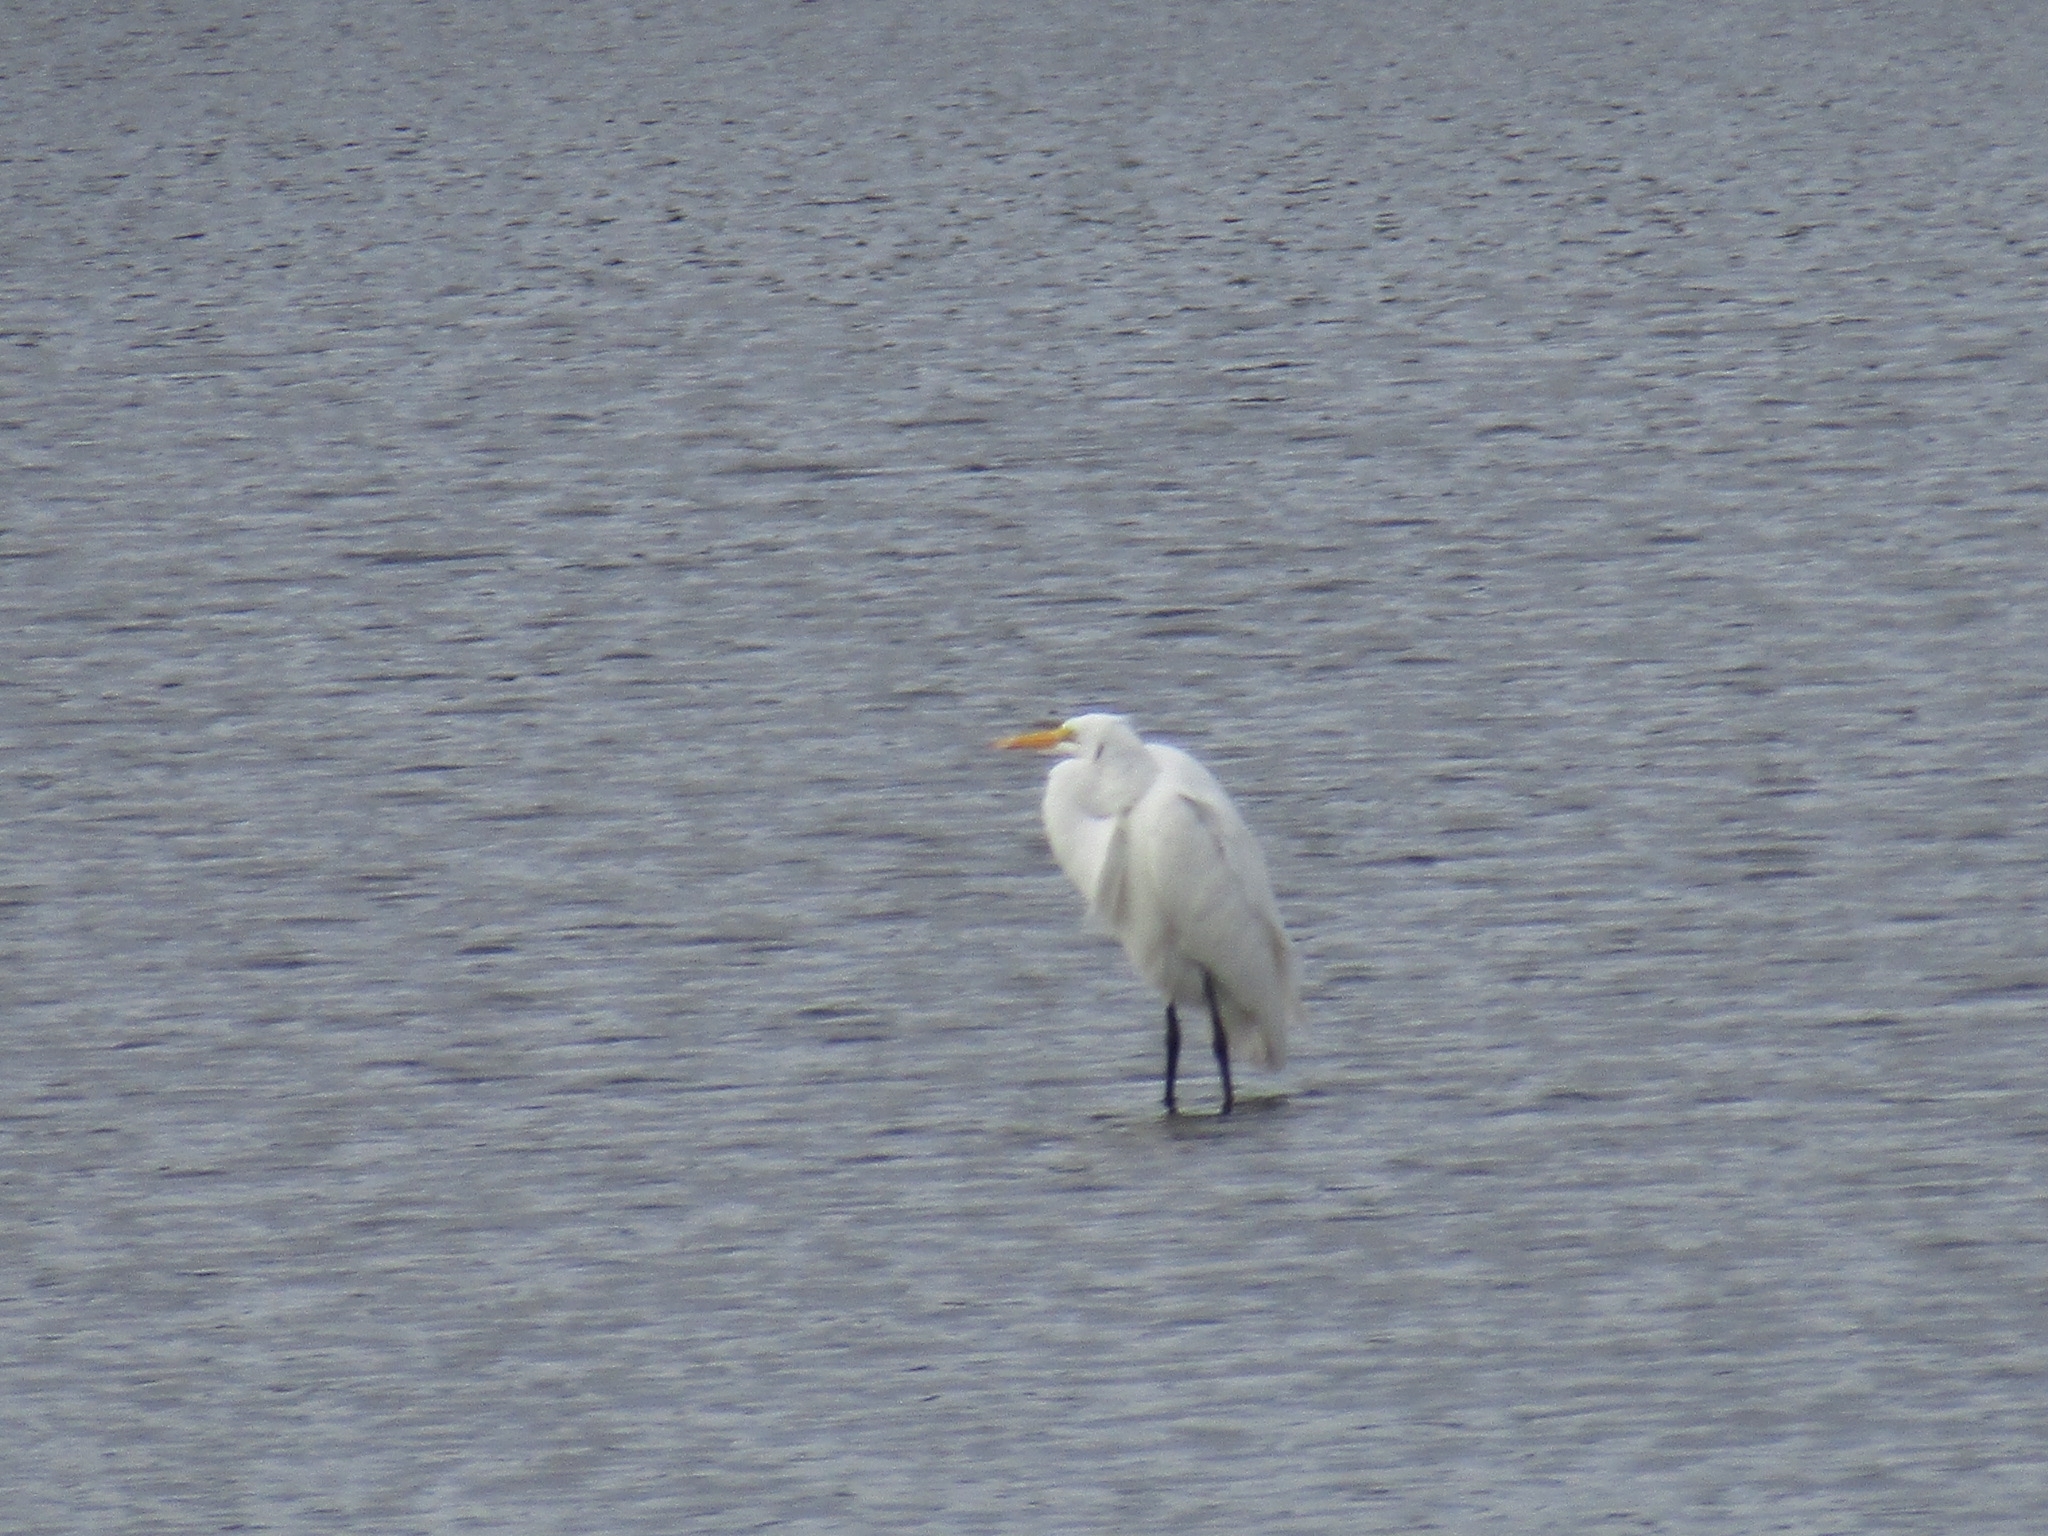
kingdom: Animalia
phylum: Chordata
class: Aves
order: Pelecaniformes
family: Ardeidae
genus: Ardea
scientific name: Ardea alba
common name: Great egret
